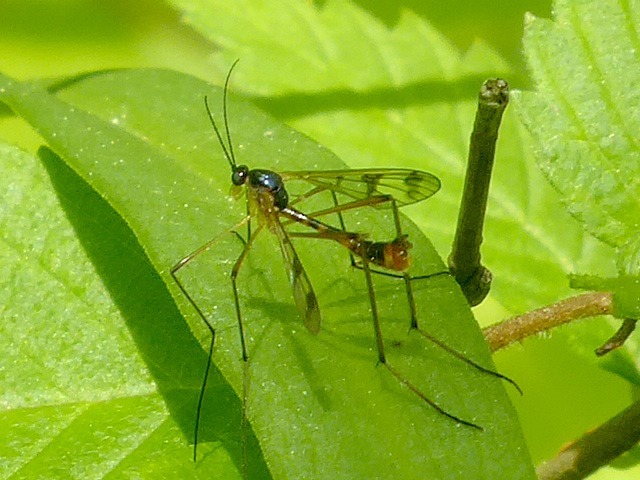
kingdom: Animalia
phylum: Arthropoda
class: Insecta
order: Diptera
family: Ptychopteridae
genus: Ptychoptera
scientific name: Ptychoptera quadrifasciata
